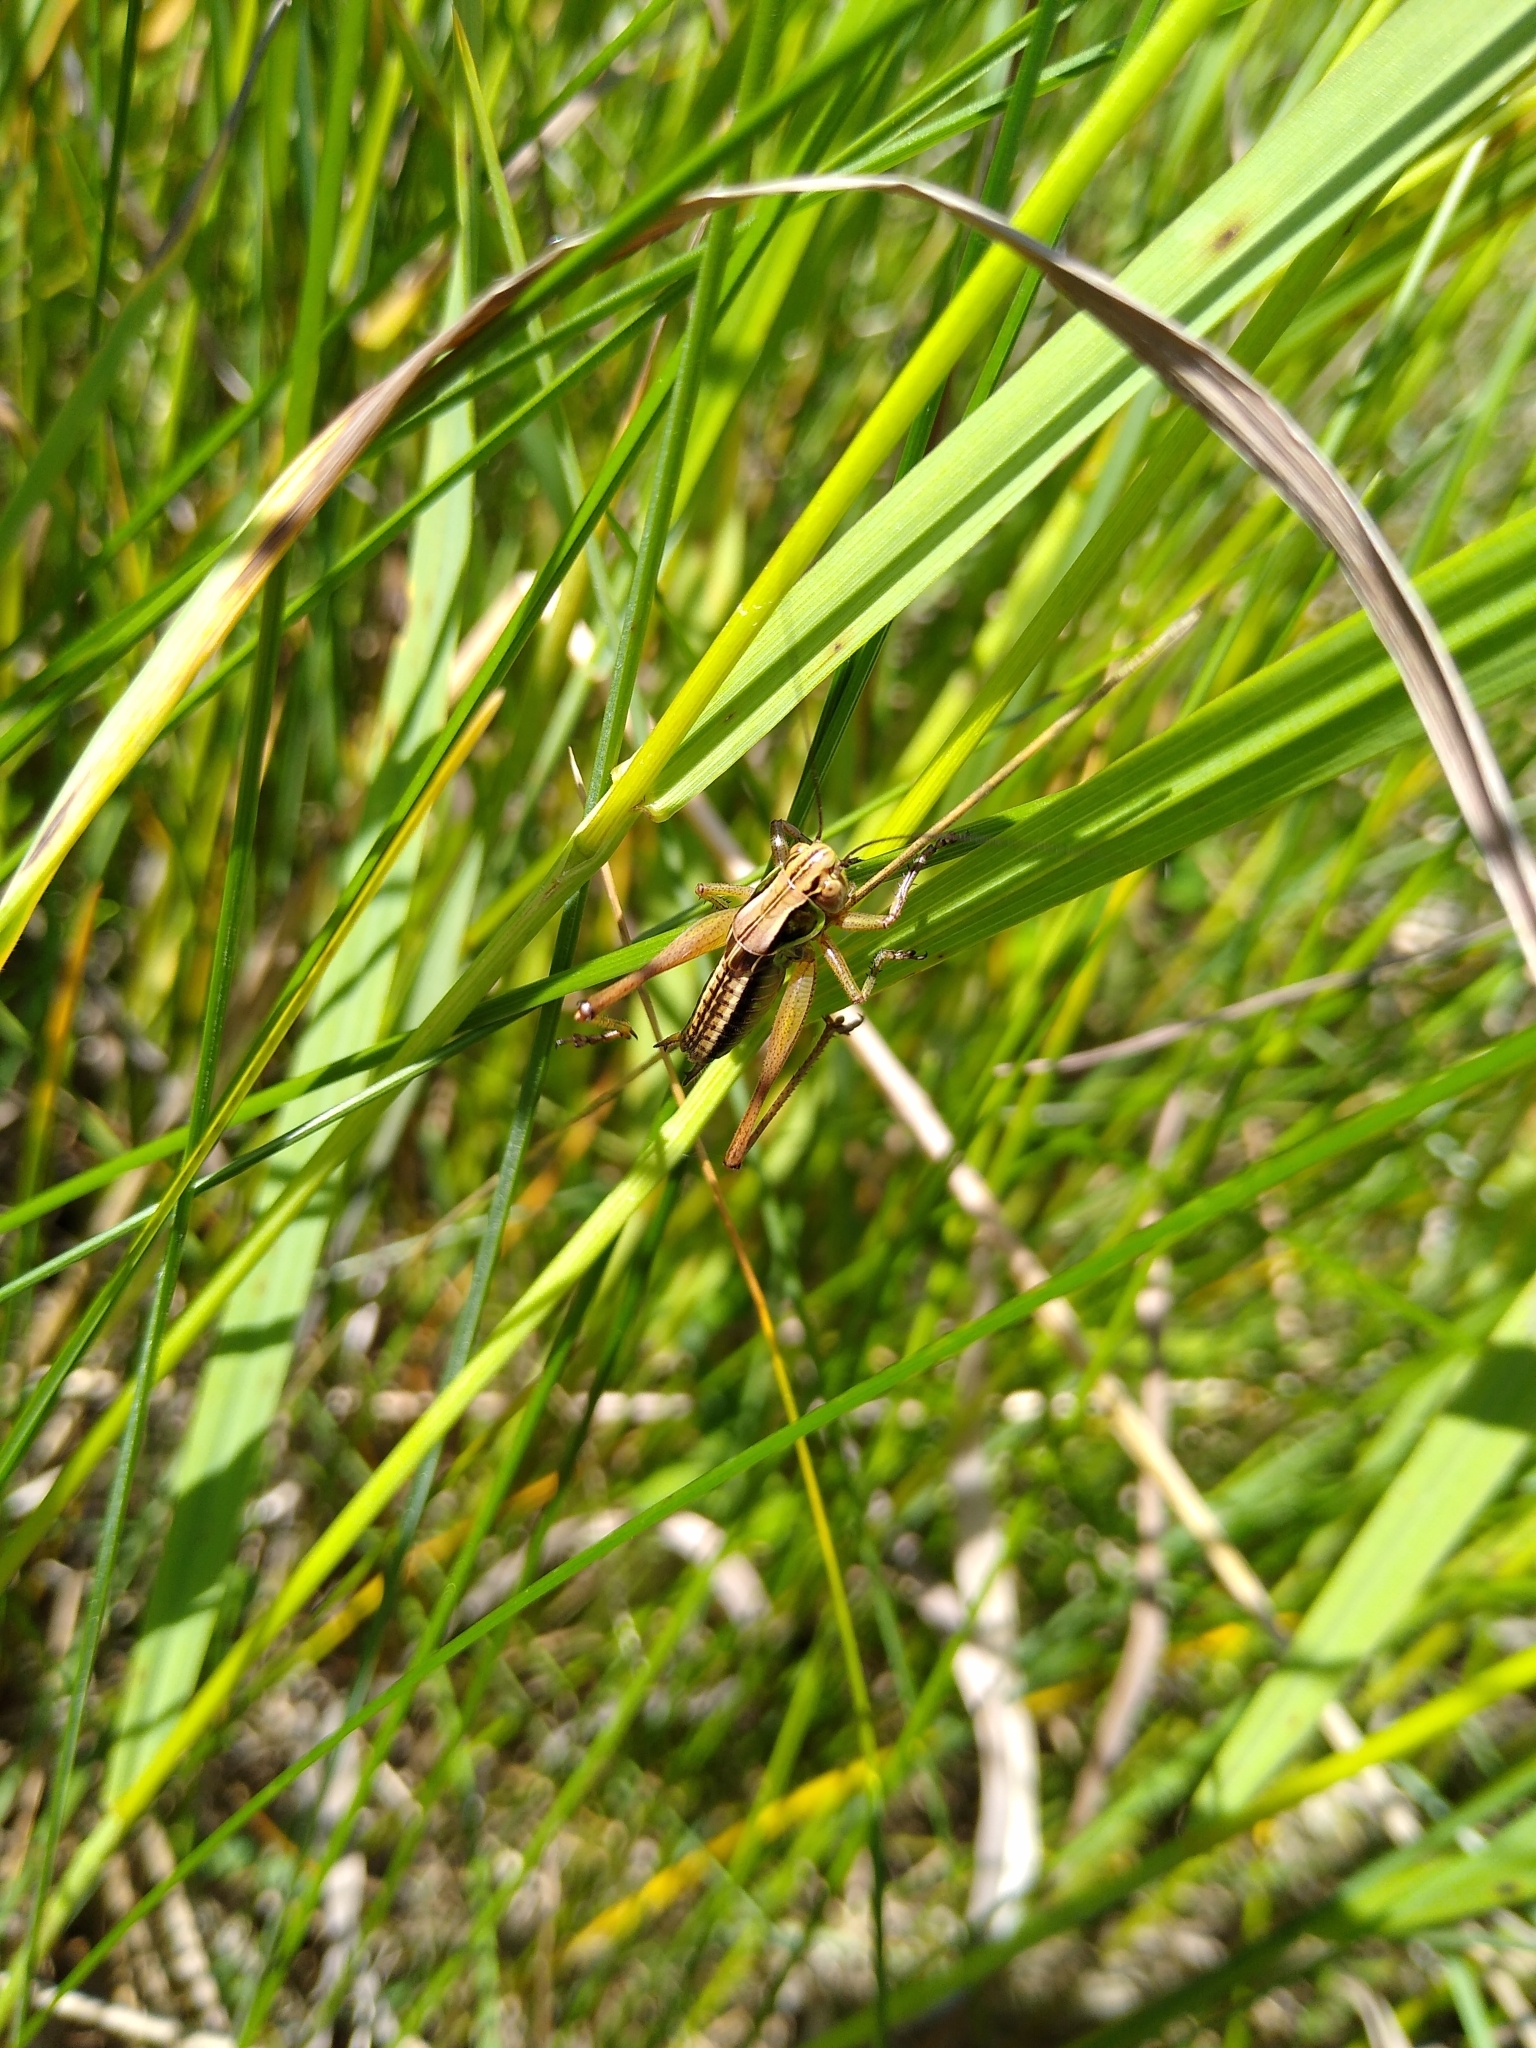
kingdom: Animalia
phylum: Arthropoda
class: Insecta
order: Orthoptera
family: Tettigoniidae
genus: Roeseliana
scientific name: Roeseliana roeselii
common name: Roesel's bush cricket
